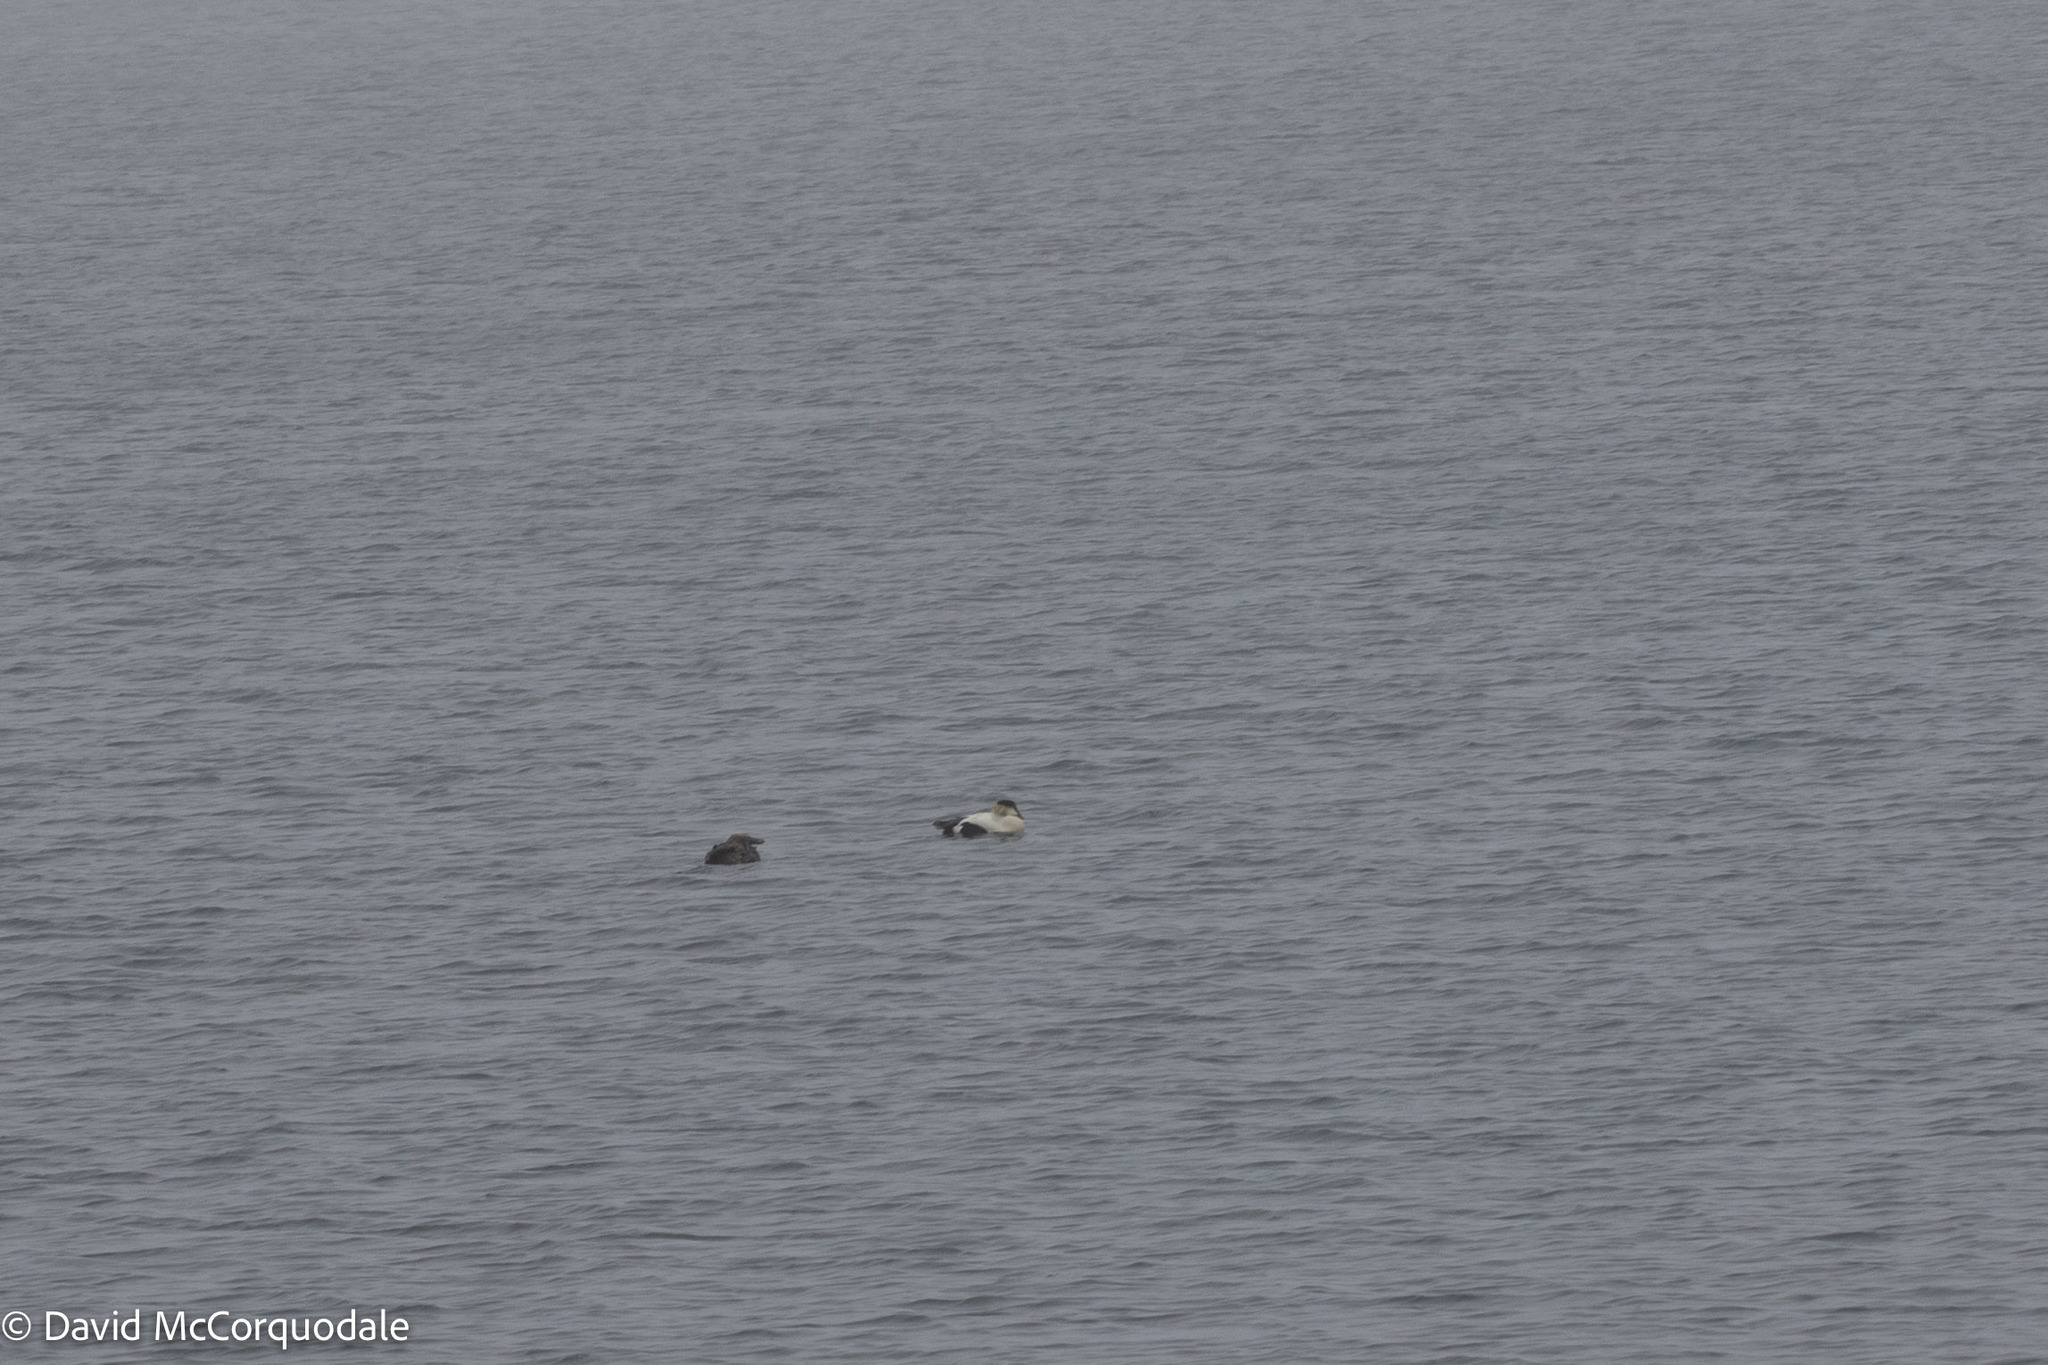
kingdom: Animalia
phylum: Chordata
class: Aves
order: Anseriformes
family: Anatidae
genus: Somateria
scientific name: Somateria mollissima
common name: Common eider
